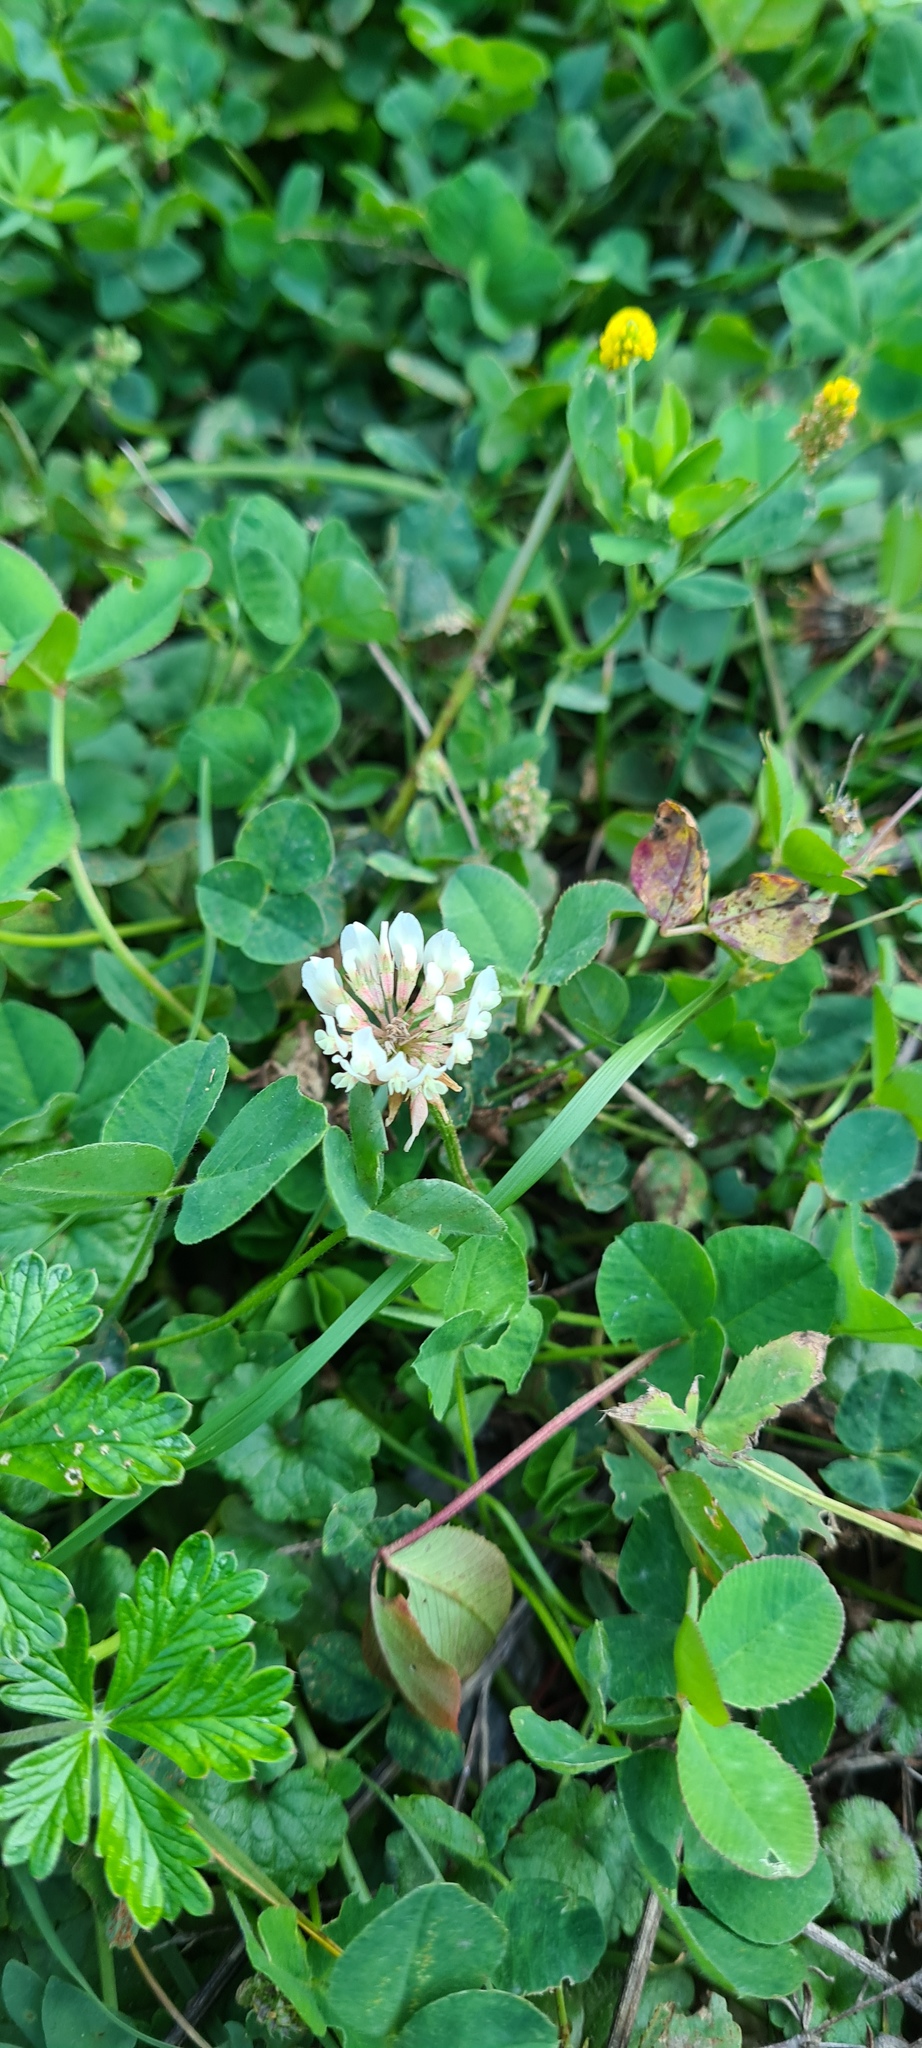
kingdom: Plantae
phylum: Tracheophyta
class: Magnoliopsida
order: Fabales
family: Fabaceae
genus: Trifolium
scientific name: Trifolium repens
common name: White clover
